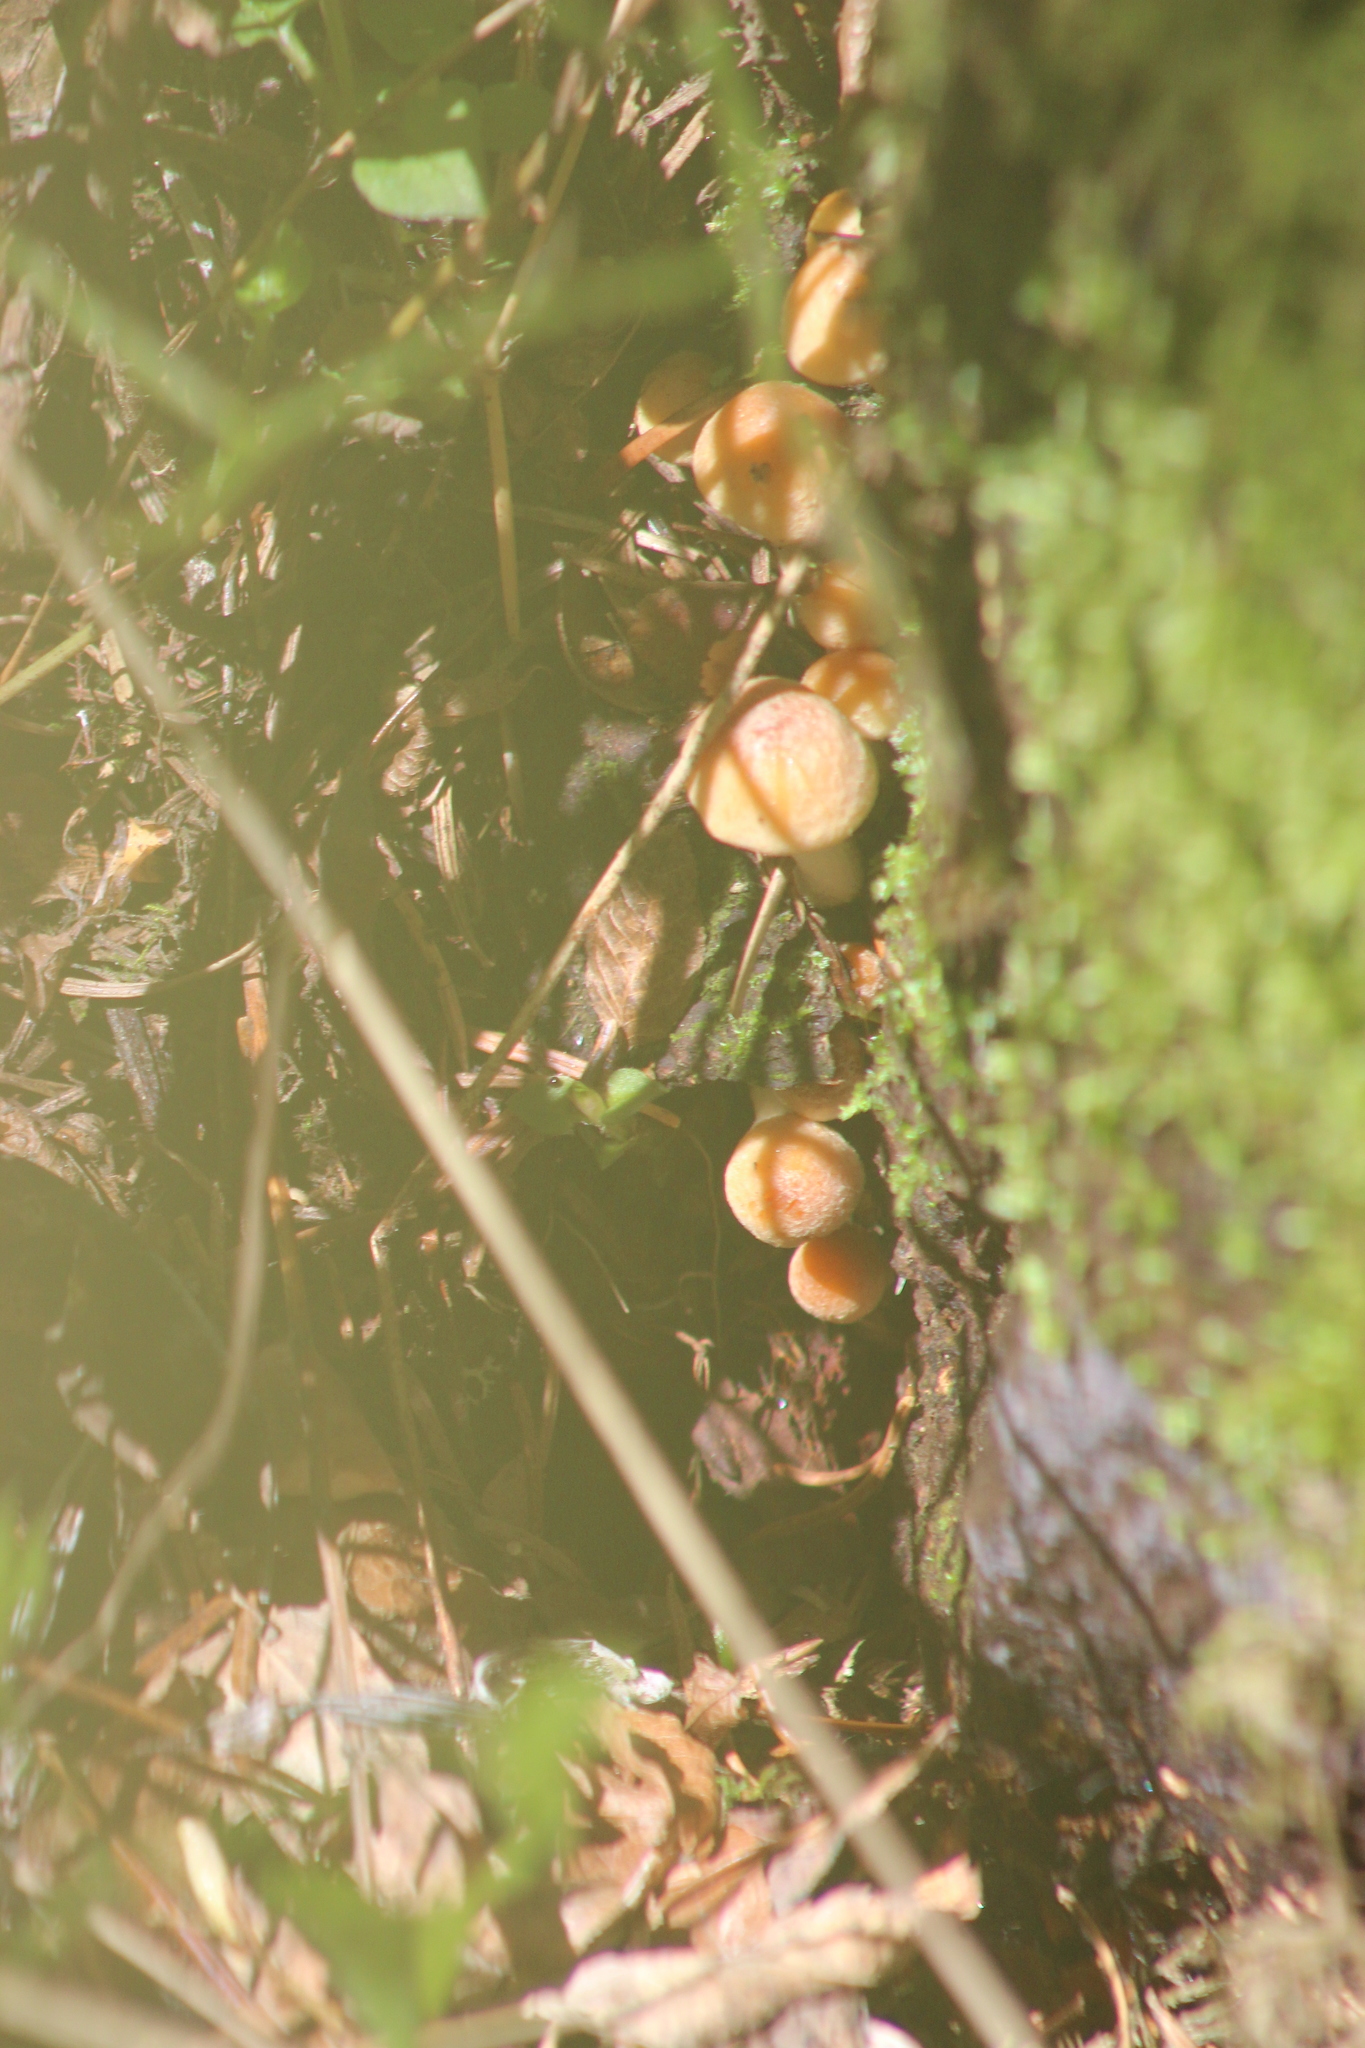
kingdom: Fungi
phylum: Basidiomycota
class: Agaricomycetes
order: Agaricales
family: Strophariaceae
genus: Hypholoma
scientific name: Hypholoma lateritium
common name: Brick caps
